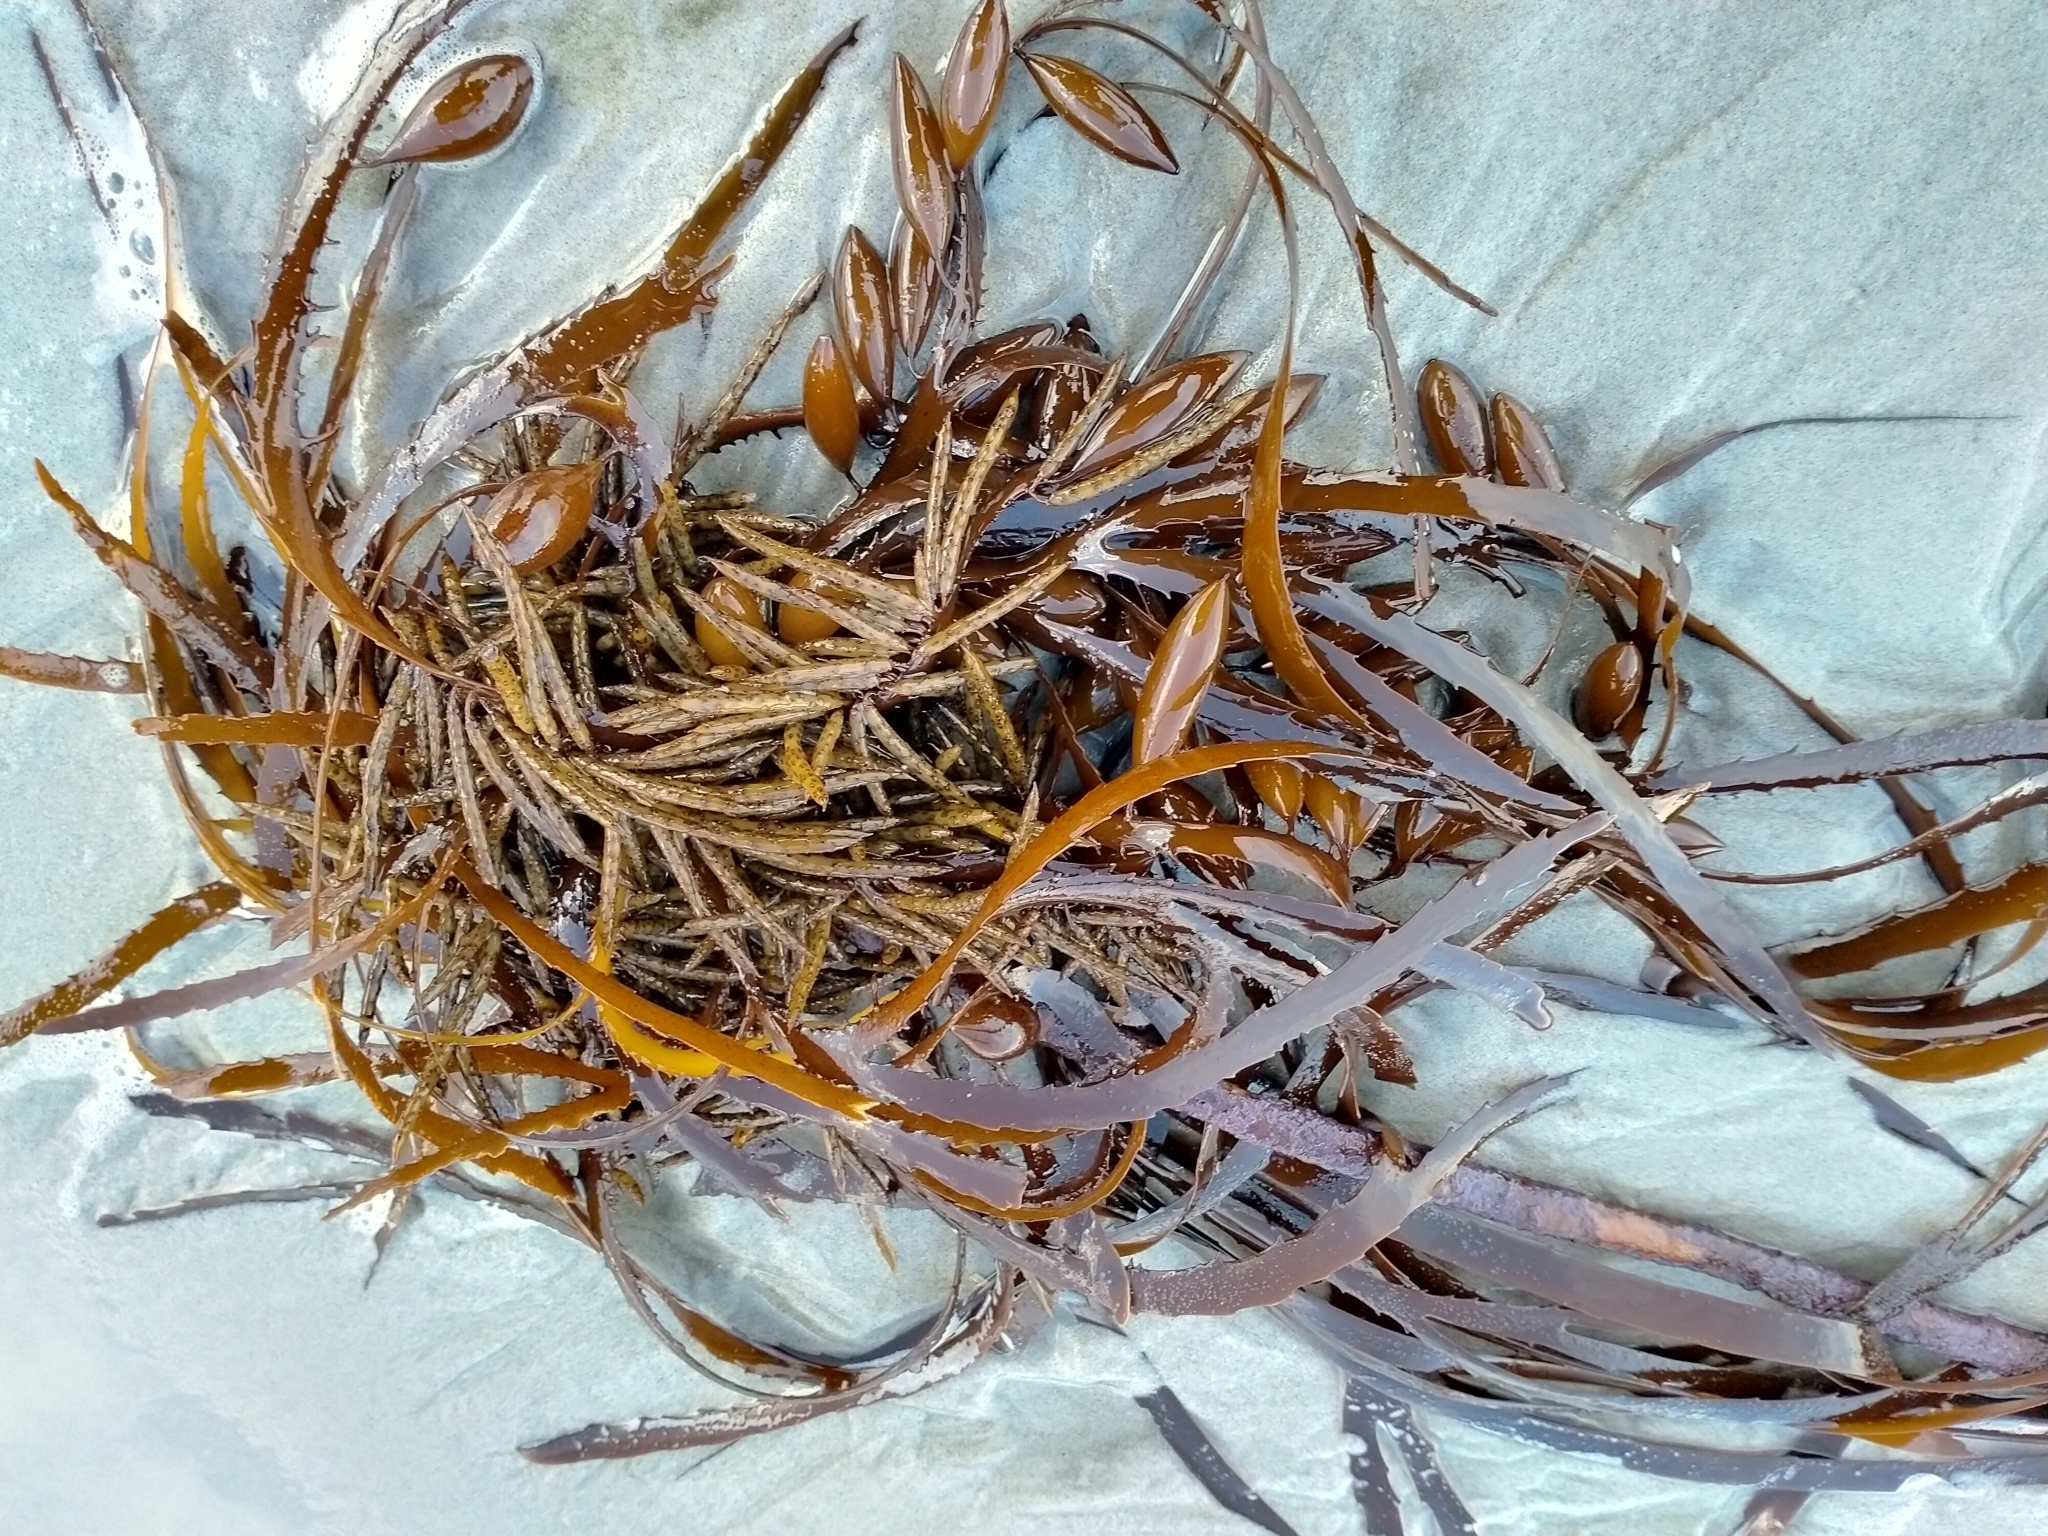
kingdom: Chromista
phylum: Ochrophyta
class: Phaeophyceae
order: Fucales
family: Seirococcaceae
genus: Marginariella
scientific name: Marginariella boryana
